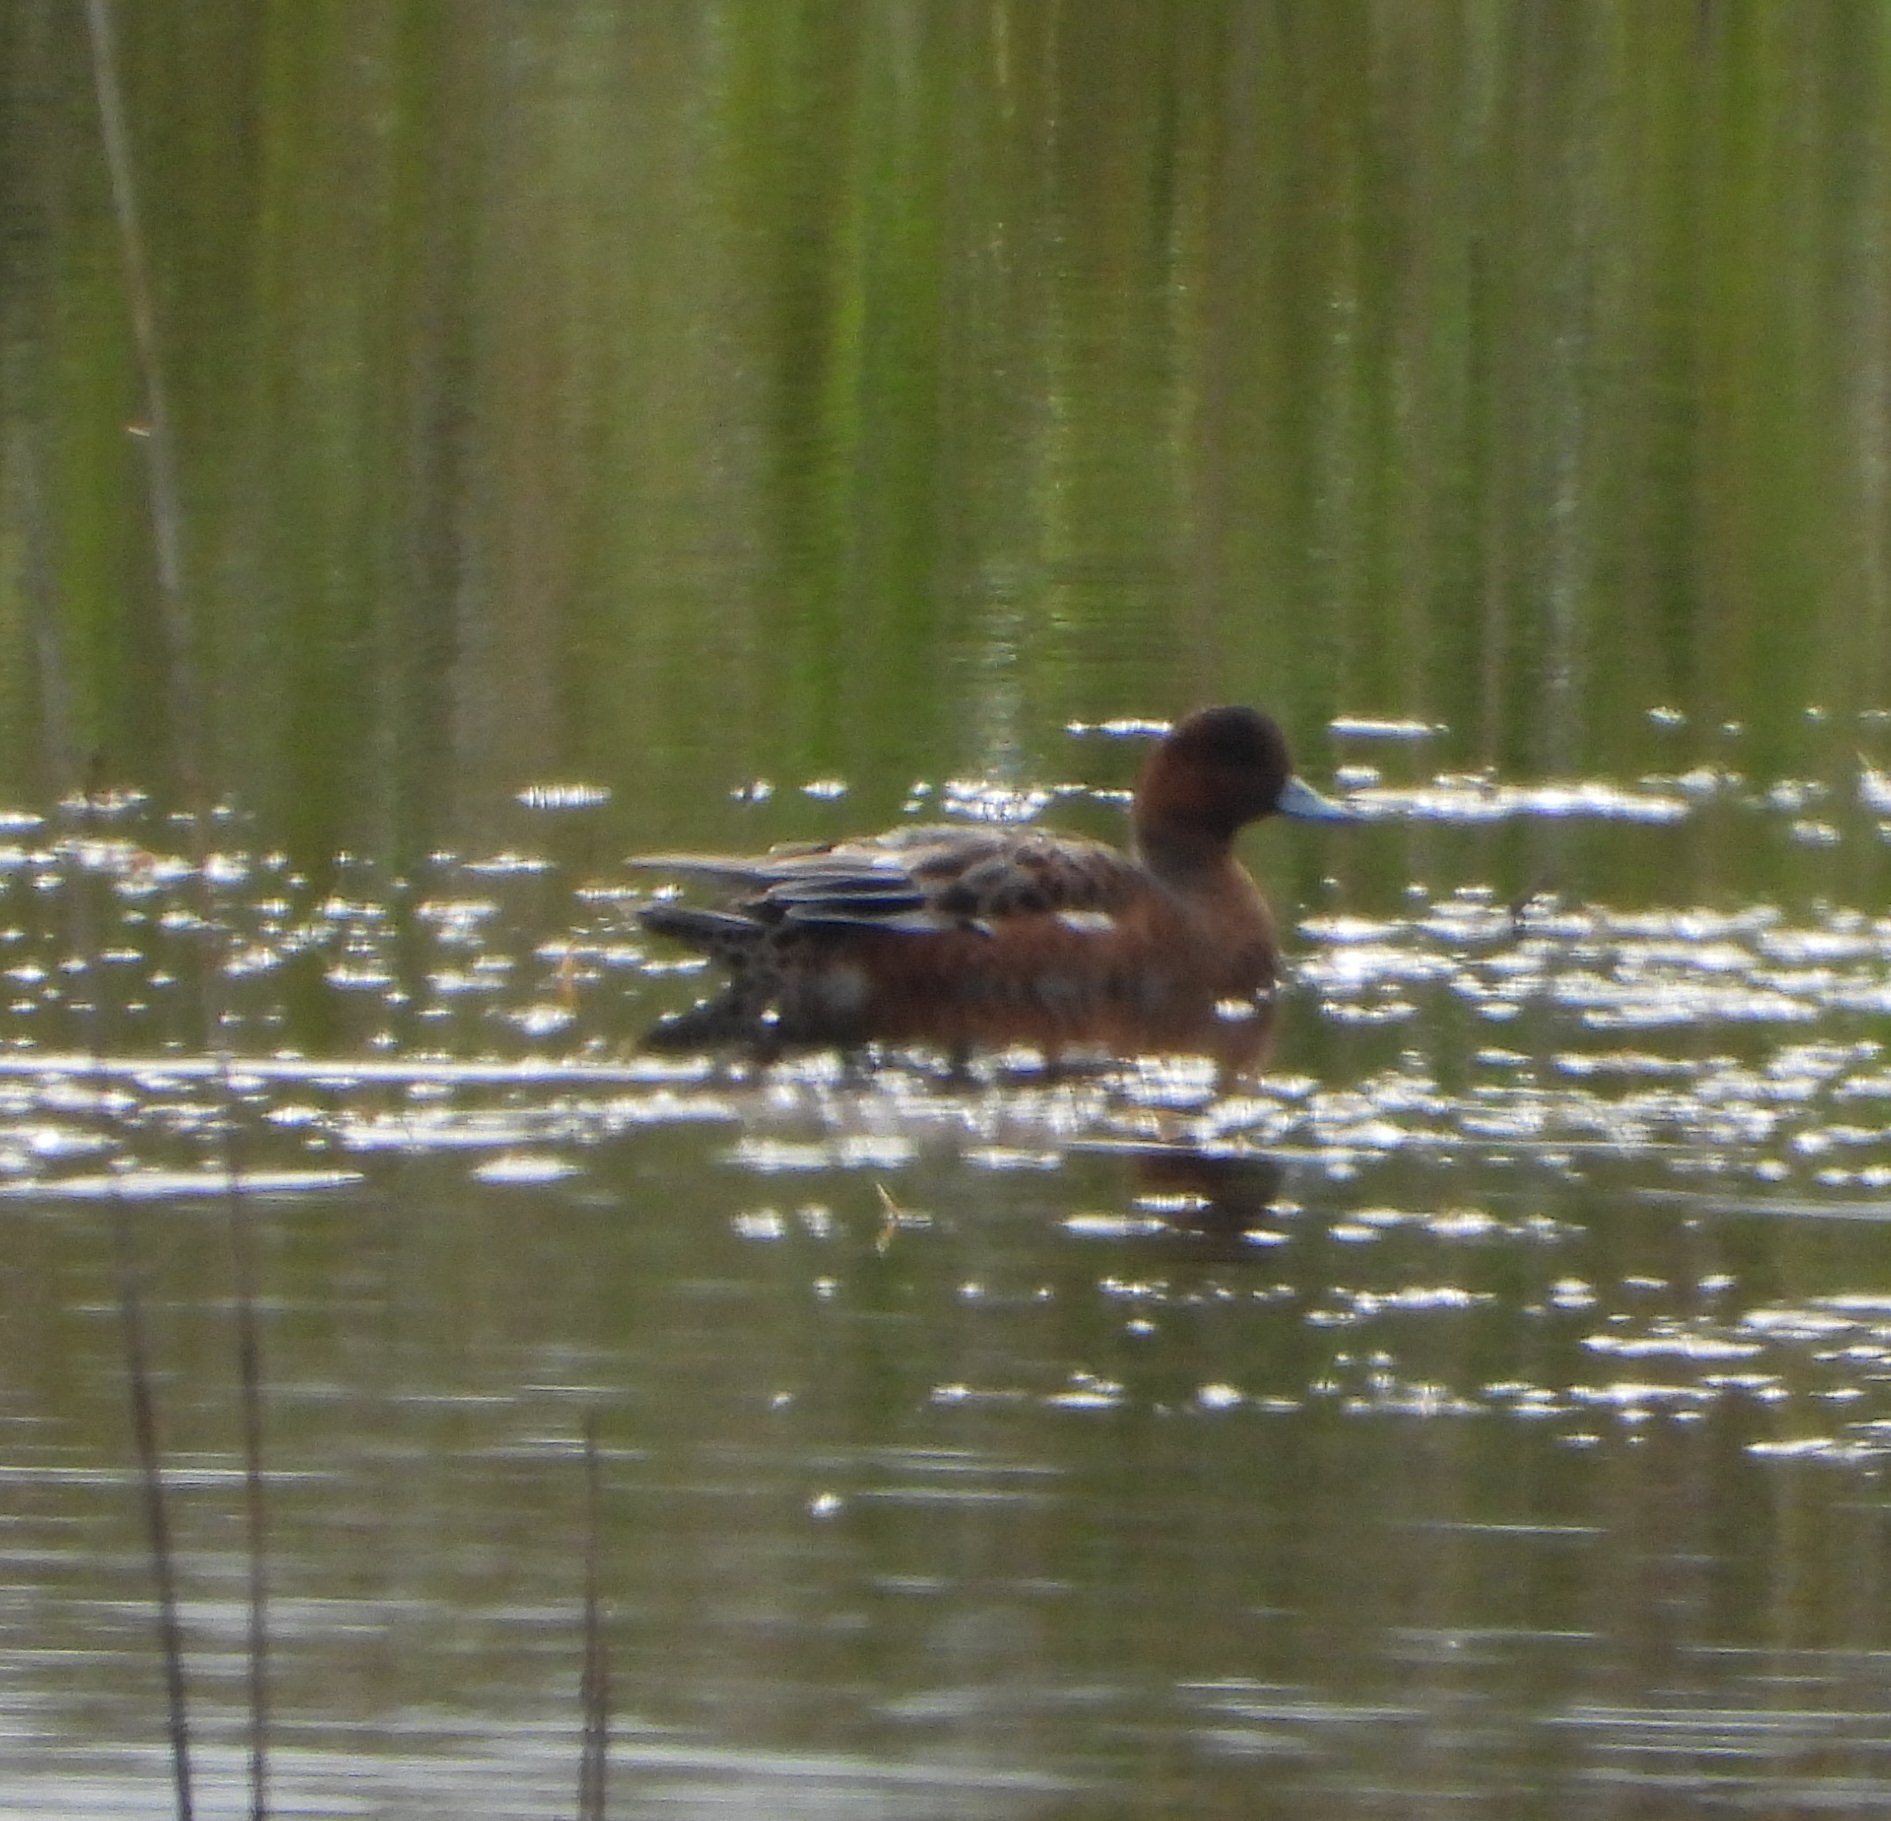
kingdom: Animalia
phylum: Chordata
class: Aves
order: Anseriformes
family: Anatidae
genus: Mareca
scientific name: Mareca penelope
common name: Eurasian wigeon
